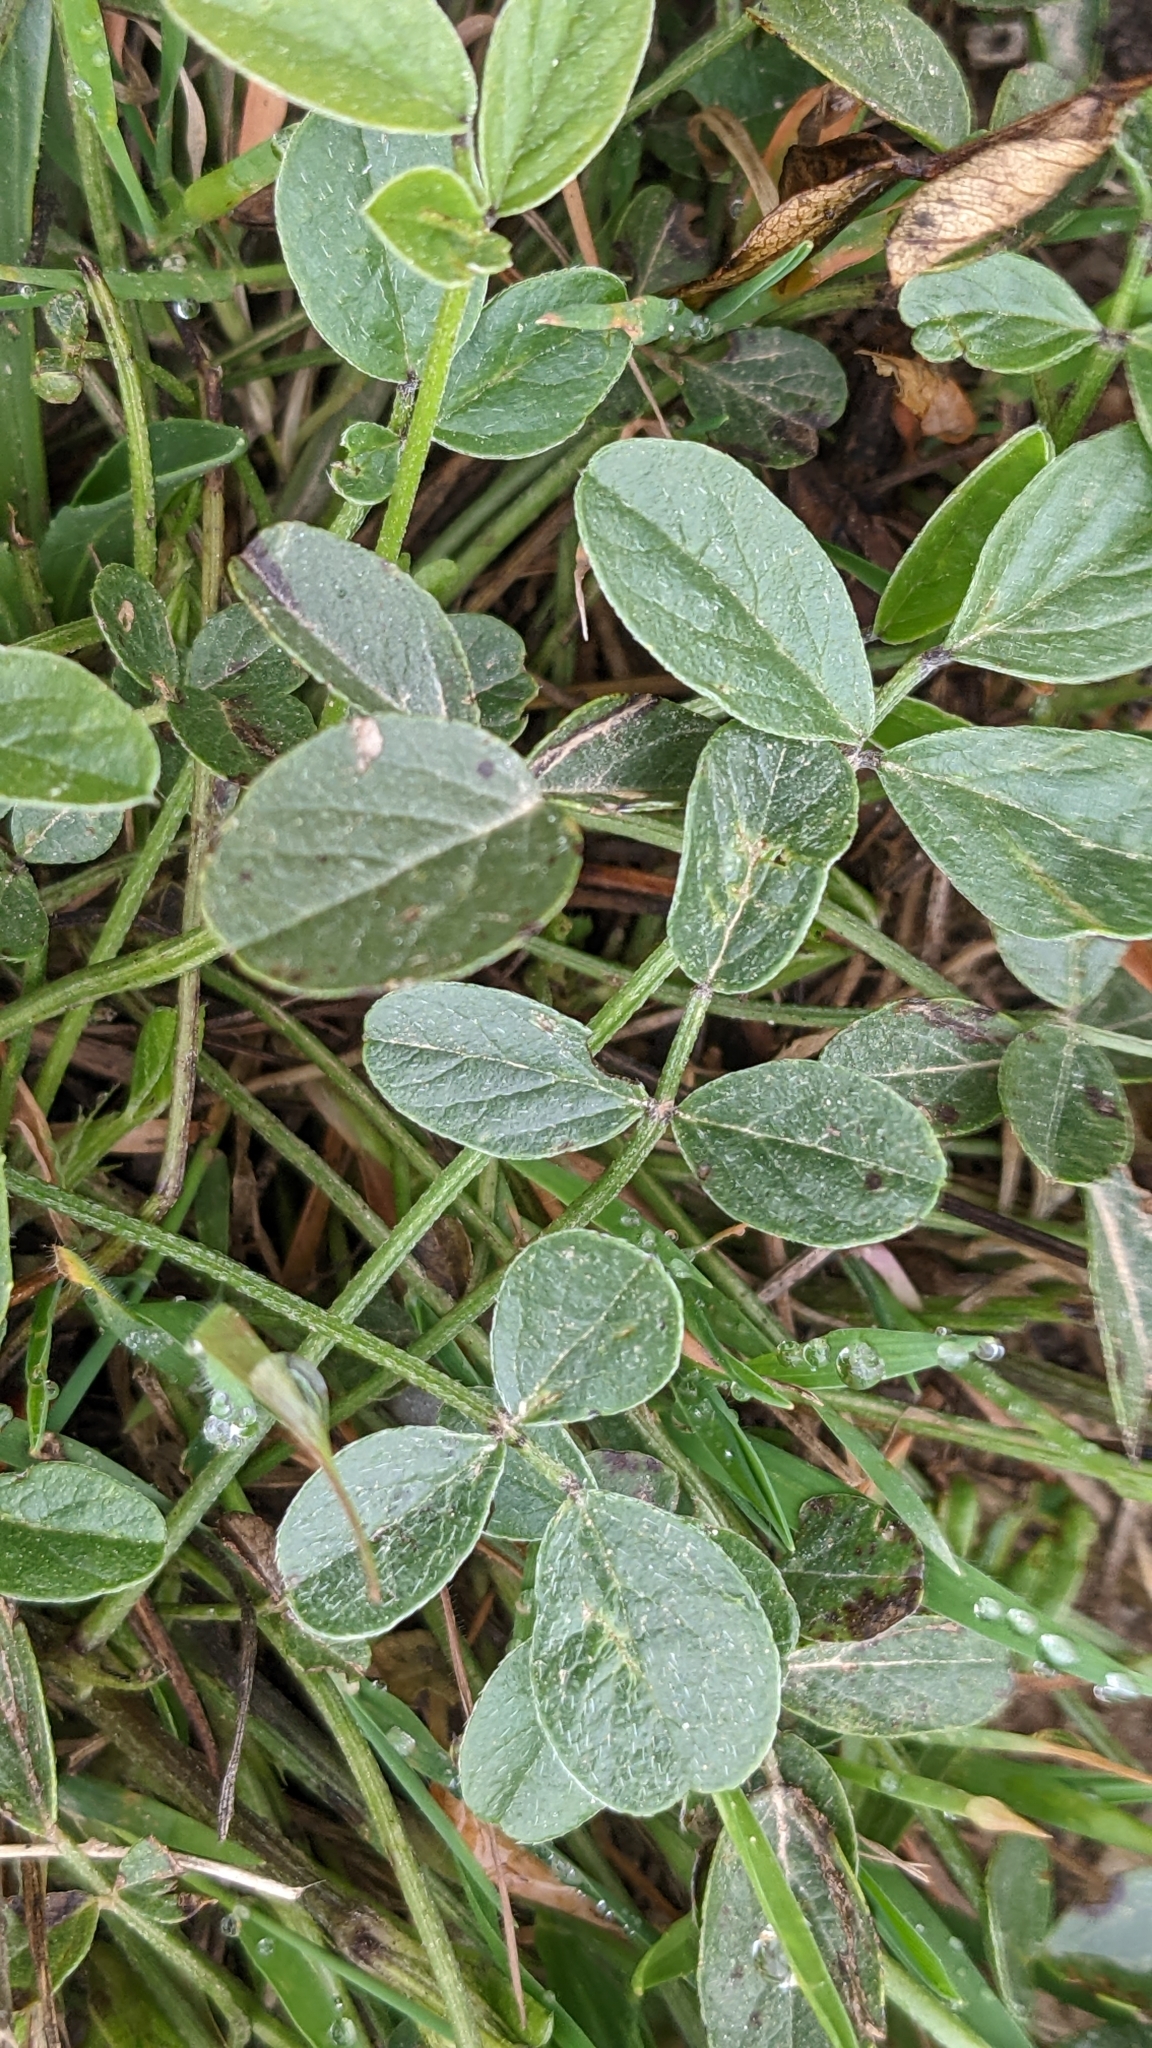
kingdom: Plantae
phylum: Tracheophyta
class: Magnoliopsida
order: Fabales
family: Fabaceae
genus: Bituminaria
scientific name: Bituminaria bituminosa
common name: Arabian pea
